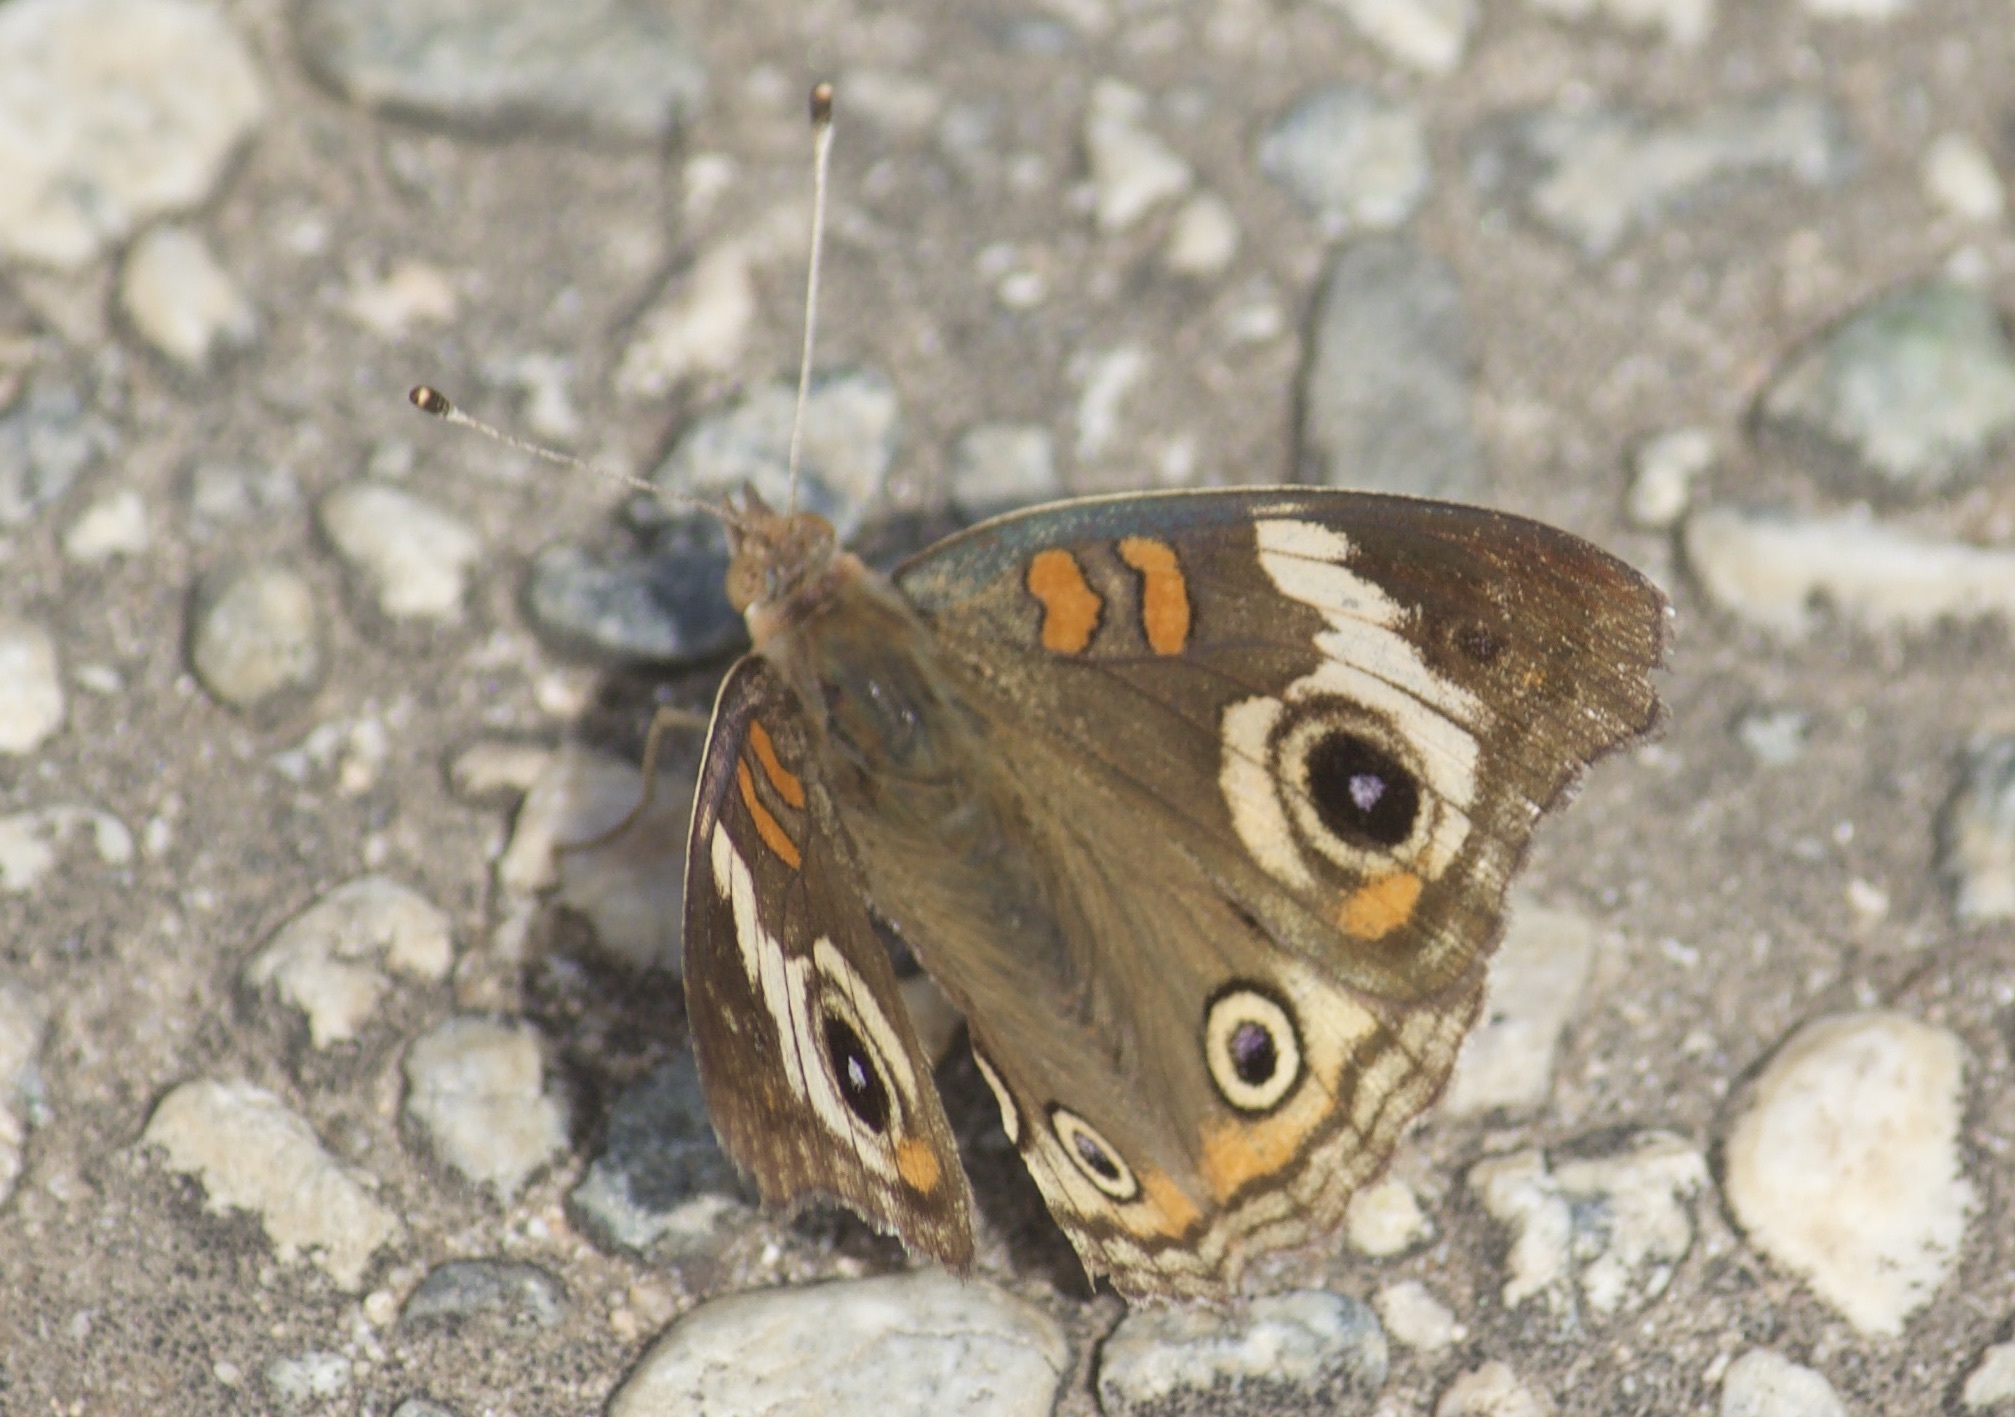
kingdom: Animalia
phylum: Arthropoda
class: Insecta
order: Lepidoptera
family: Nymphalidae
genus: Junonia
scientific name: Junonia grisea
